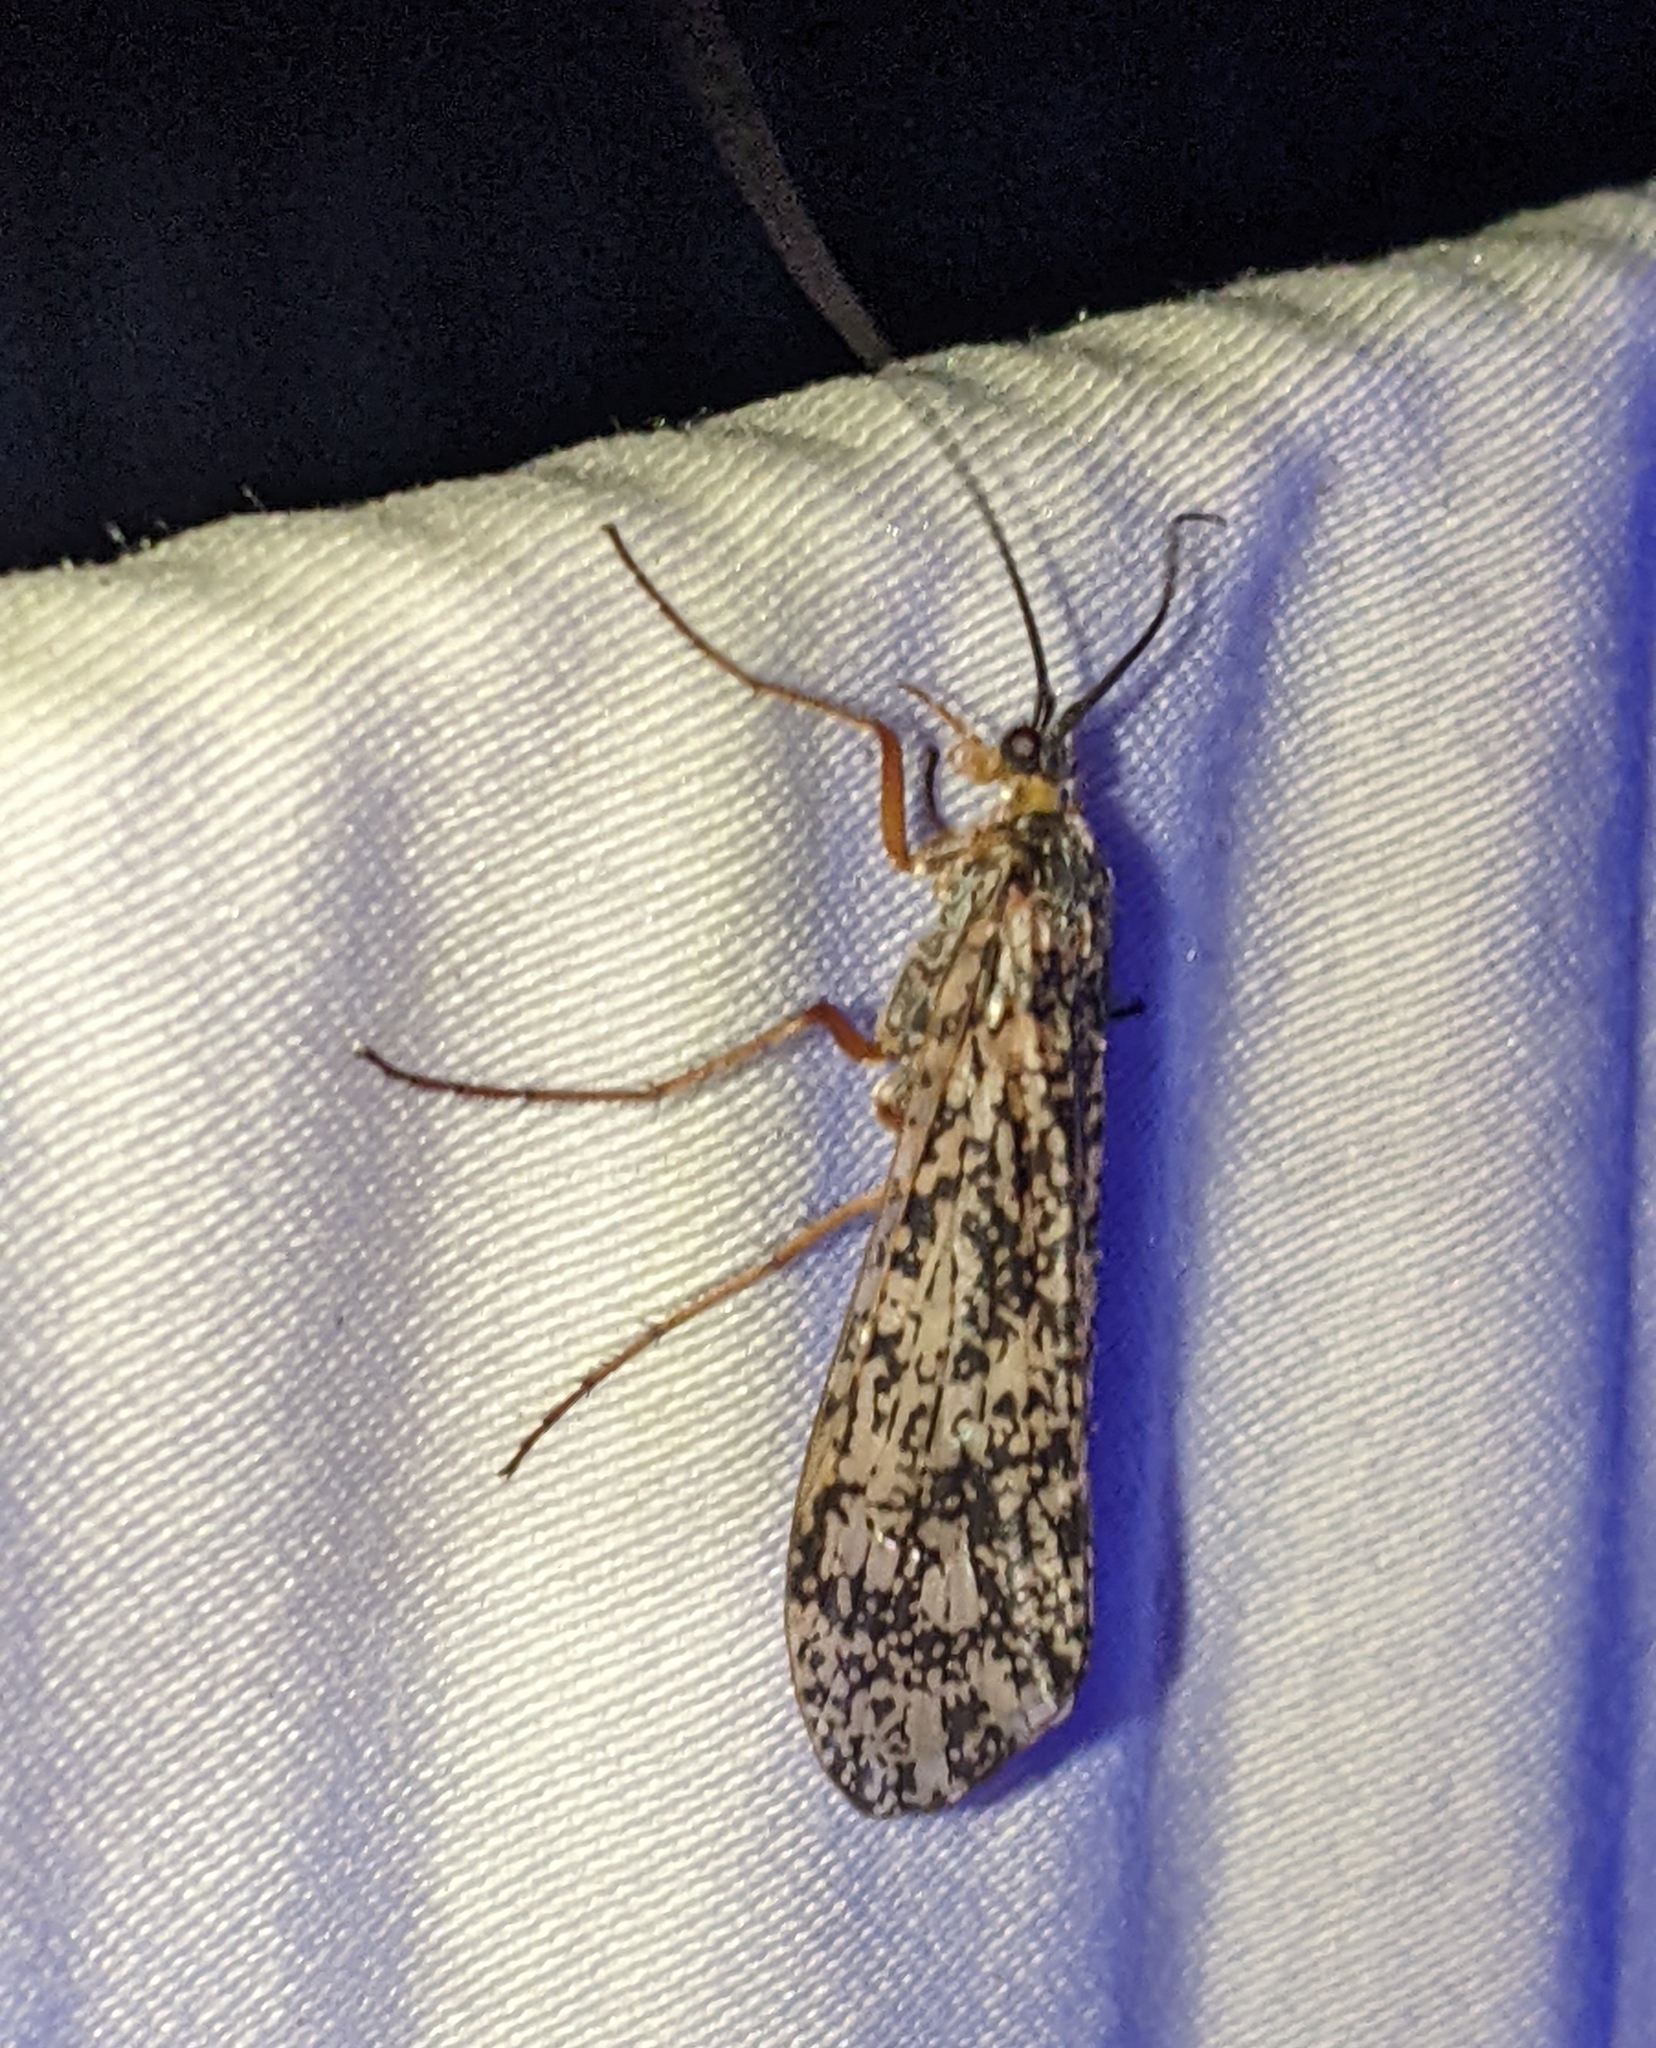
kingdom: Animalia
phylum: Arthropoda
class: Insecta
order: Trichoptera
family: Limnephilidae
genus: Clistoronia
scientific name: Clistoronia magnifica
